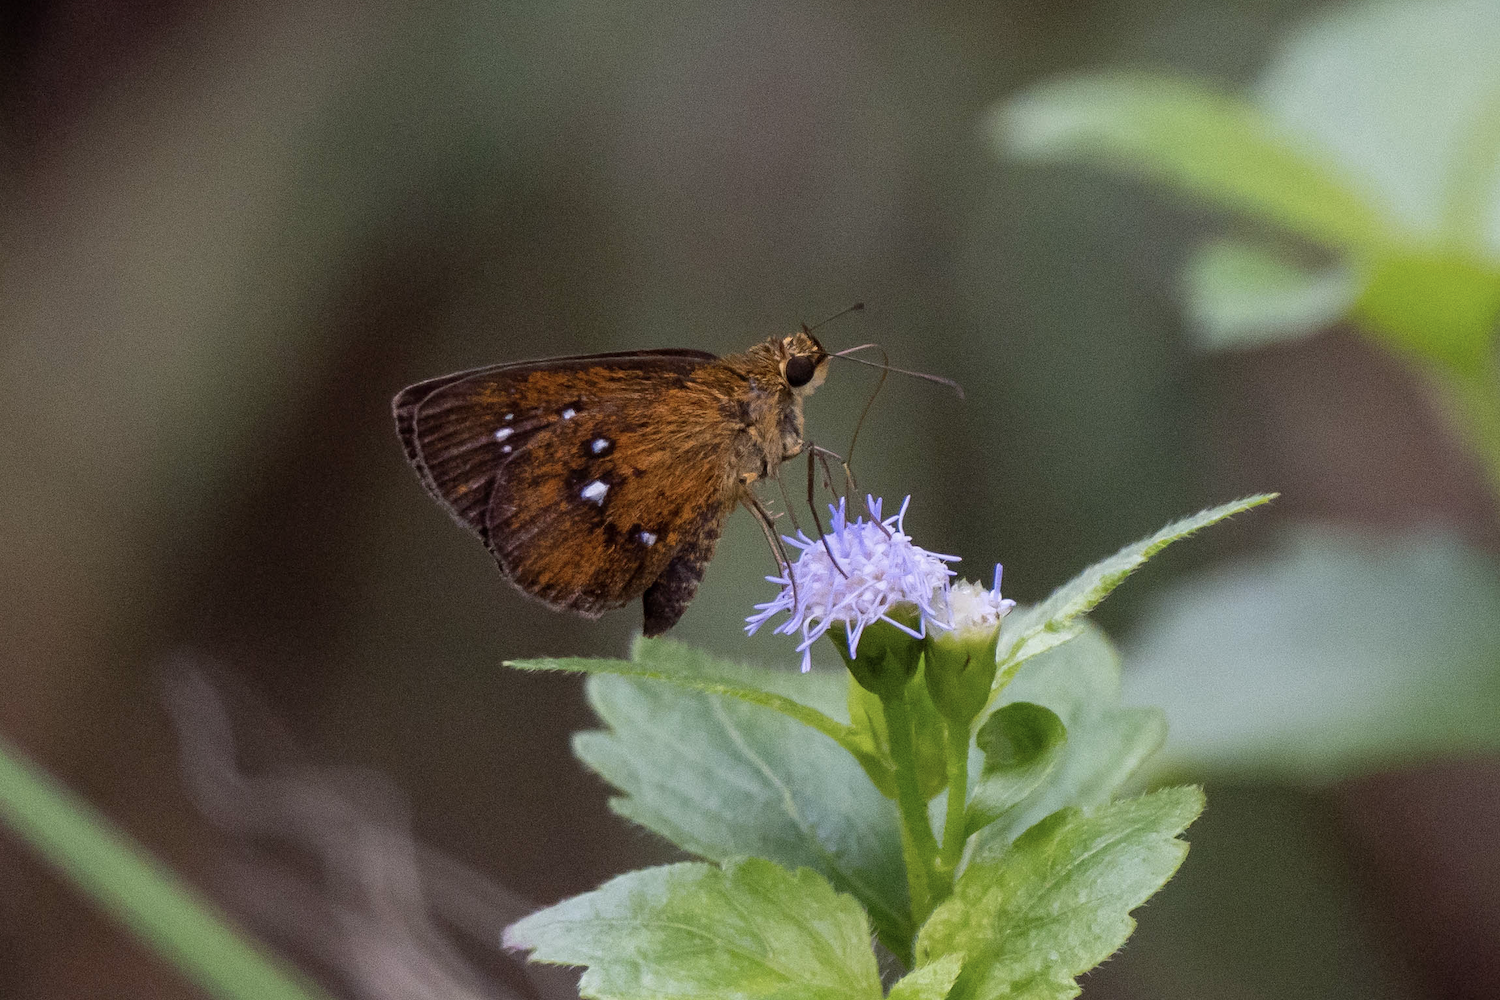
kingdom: Animalia
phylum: Arthropoda
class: Insecta
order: Lepidoptera
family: Hesperiidae
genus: Iambrix
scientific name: Iambrix salsala
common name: Chestnut bob
